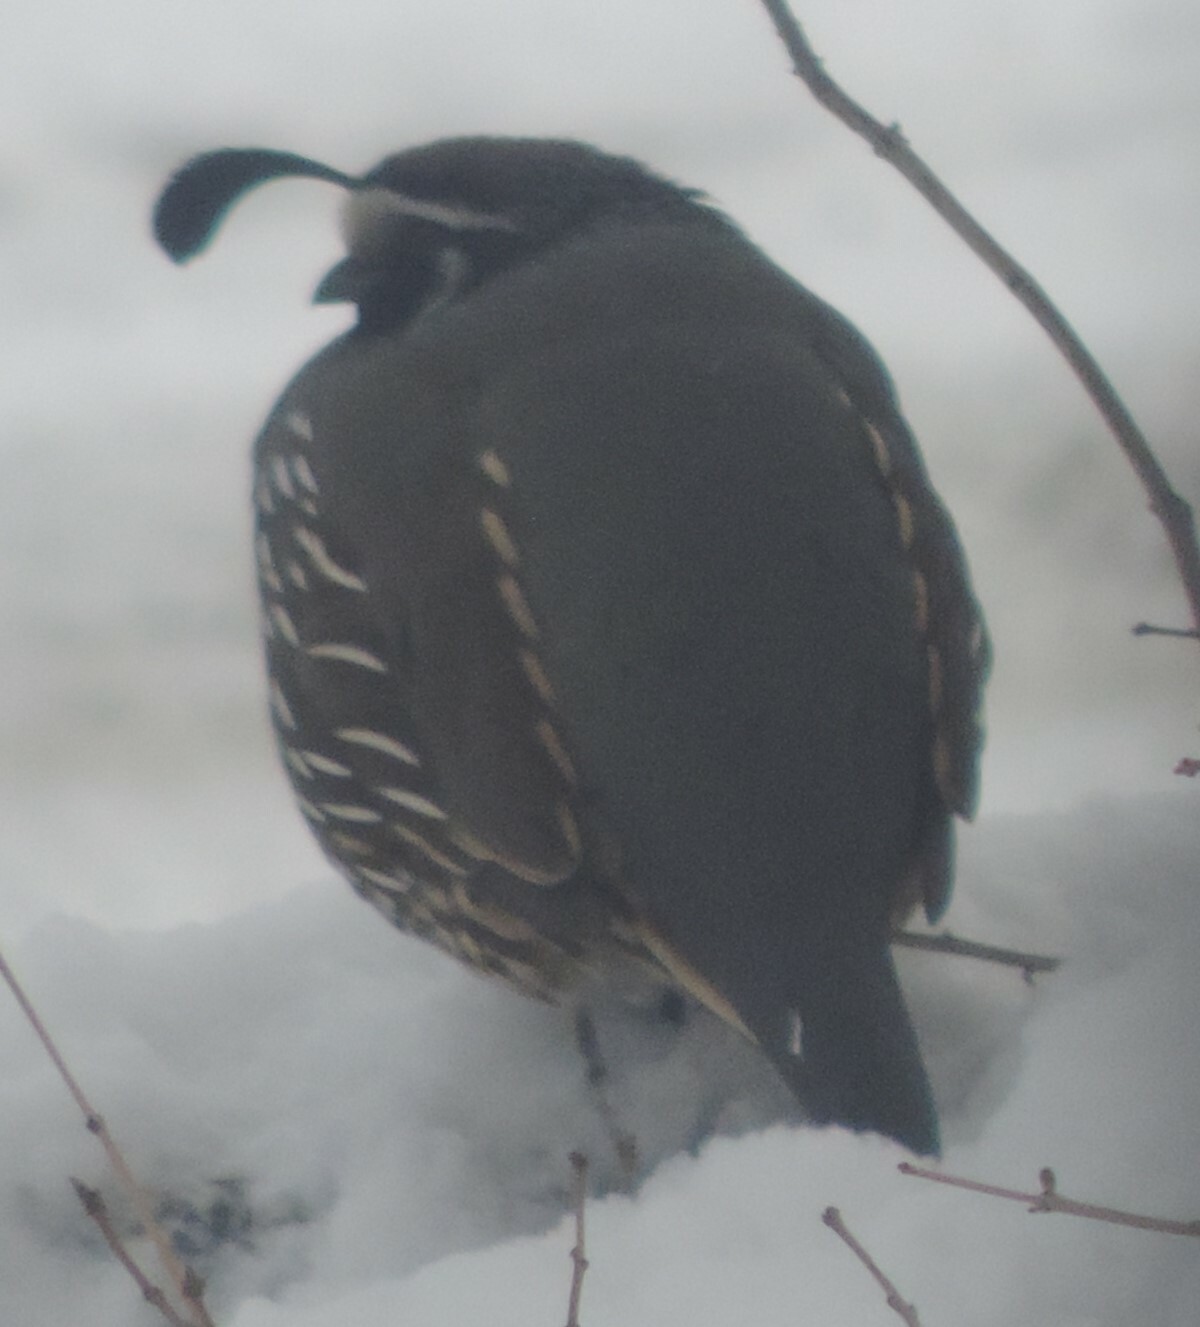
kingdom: Animalia
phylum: Chordata
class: Aves
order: Galliformes
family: Odontophoridae
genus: Callipepla
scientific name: Callipepla californica
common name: California quail
